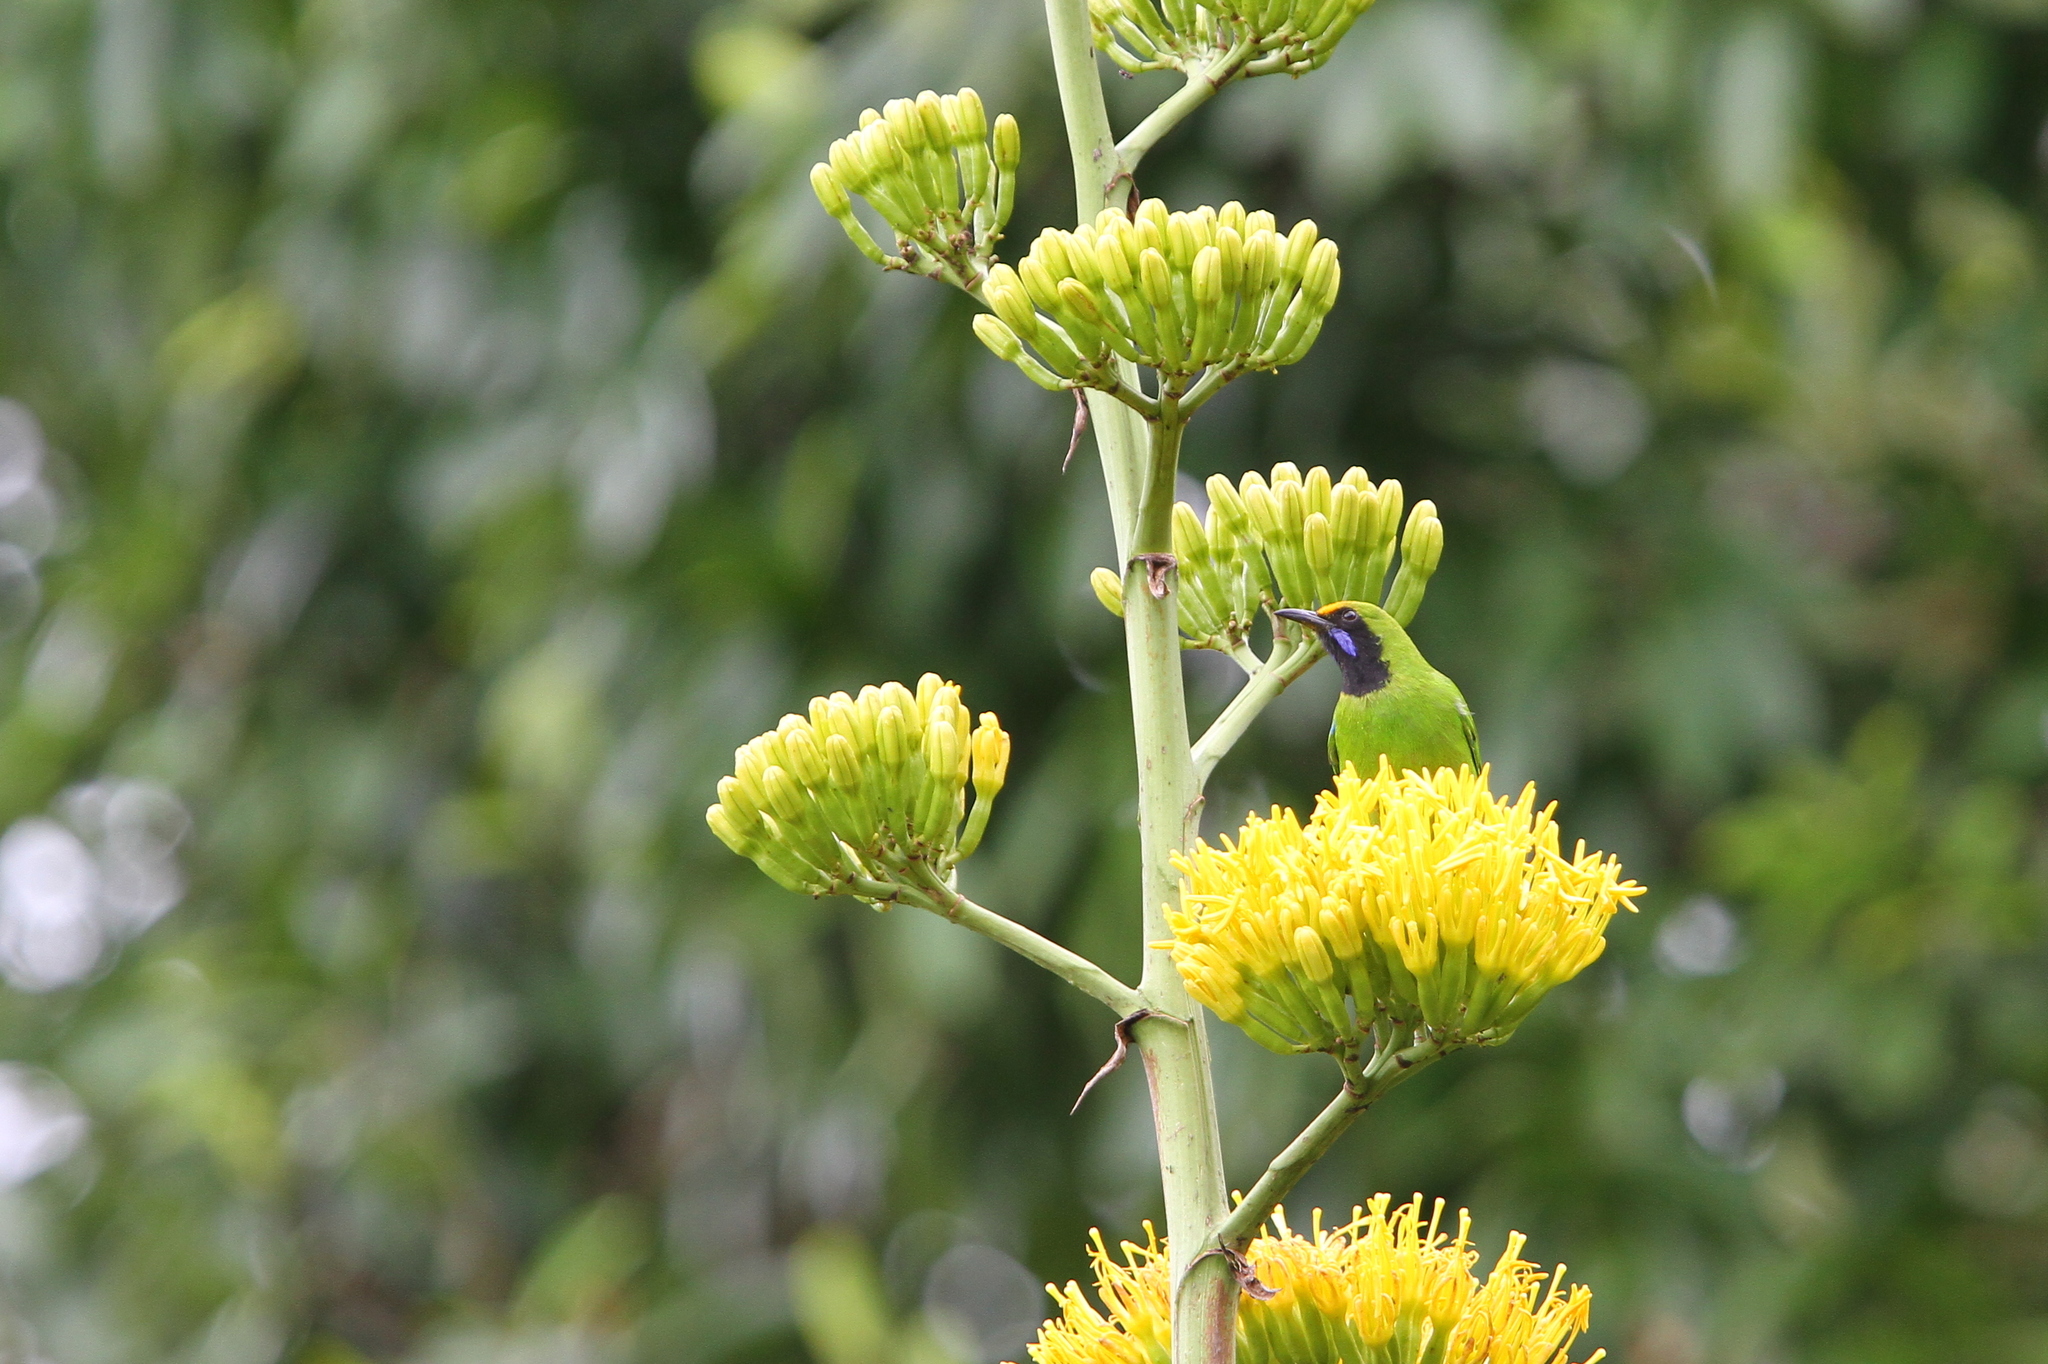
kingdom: Animalia
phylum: Chordata
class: Aves
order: Passeriformes
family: Chloropseidae
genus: Chloropsis
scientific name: Chloropsis aurifrons
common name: Golden-fronted leafbird
